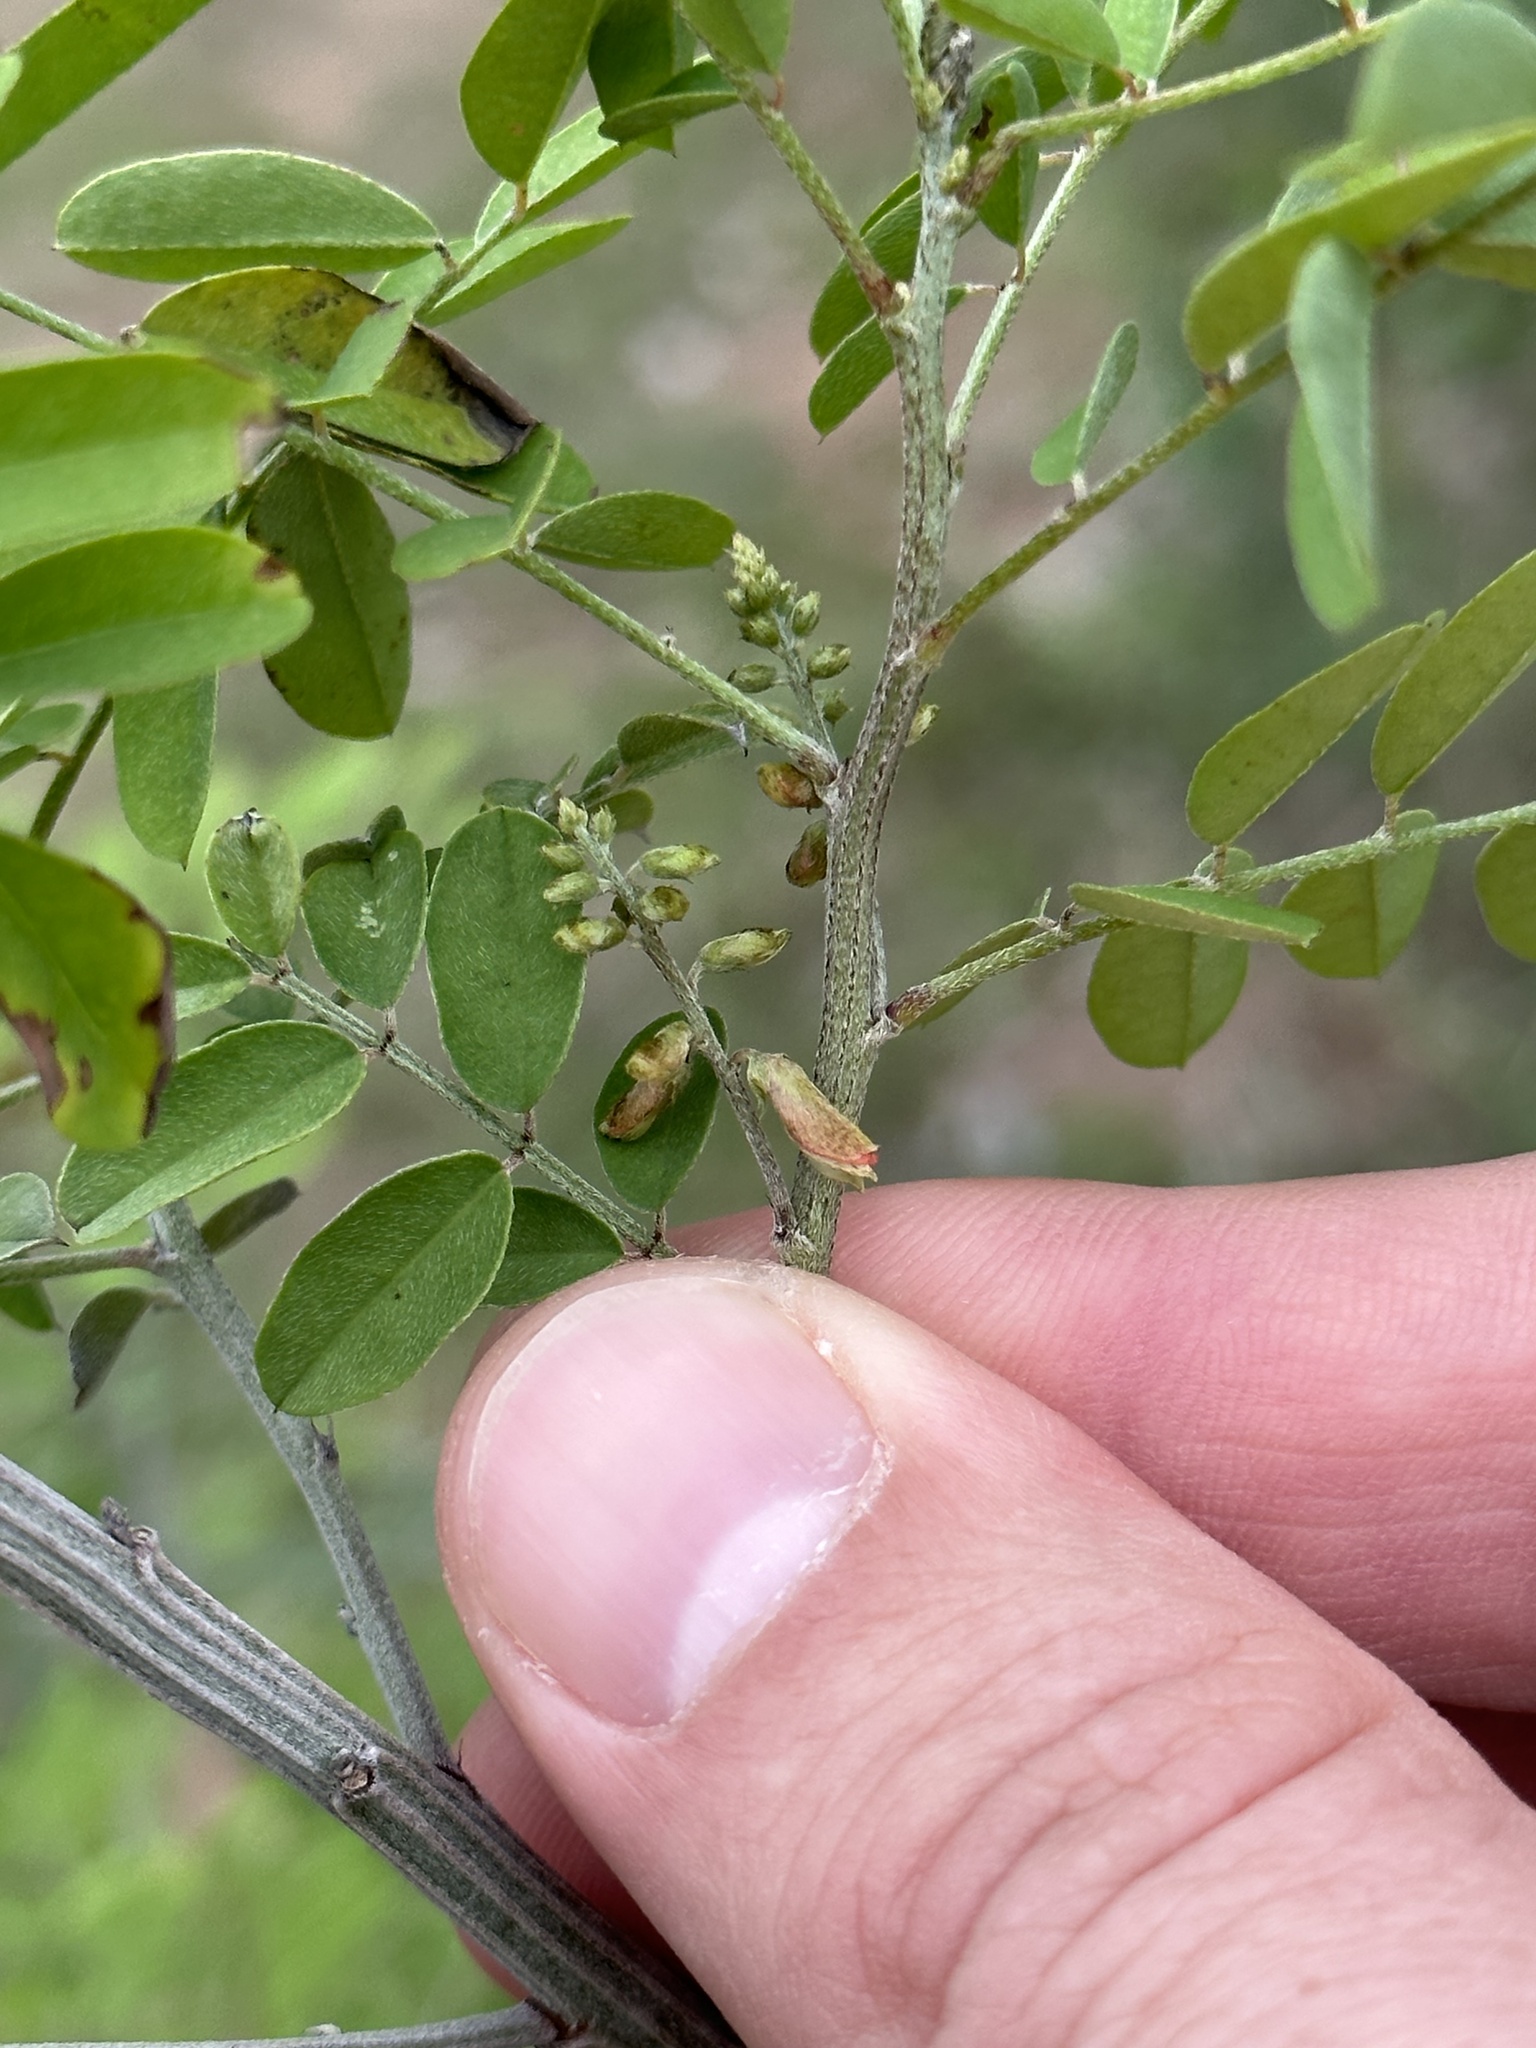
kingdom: Plantae
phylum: Tracheophyta
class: Magnoliopsida
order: Fabales
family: Fabaceae
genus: Indigofera
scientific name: Indigofera suffruticosa
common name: Anil de pasto
